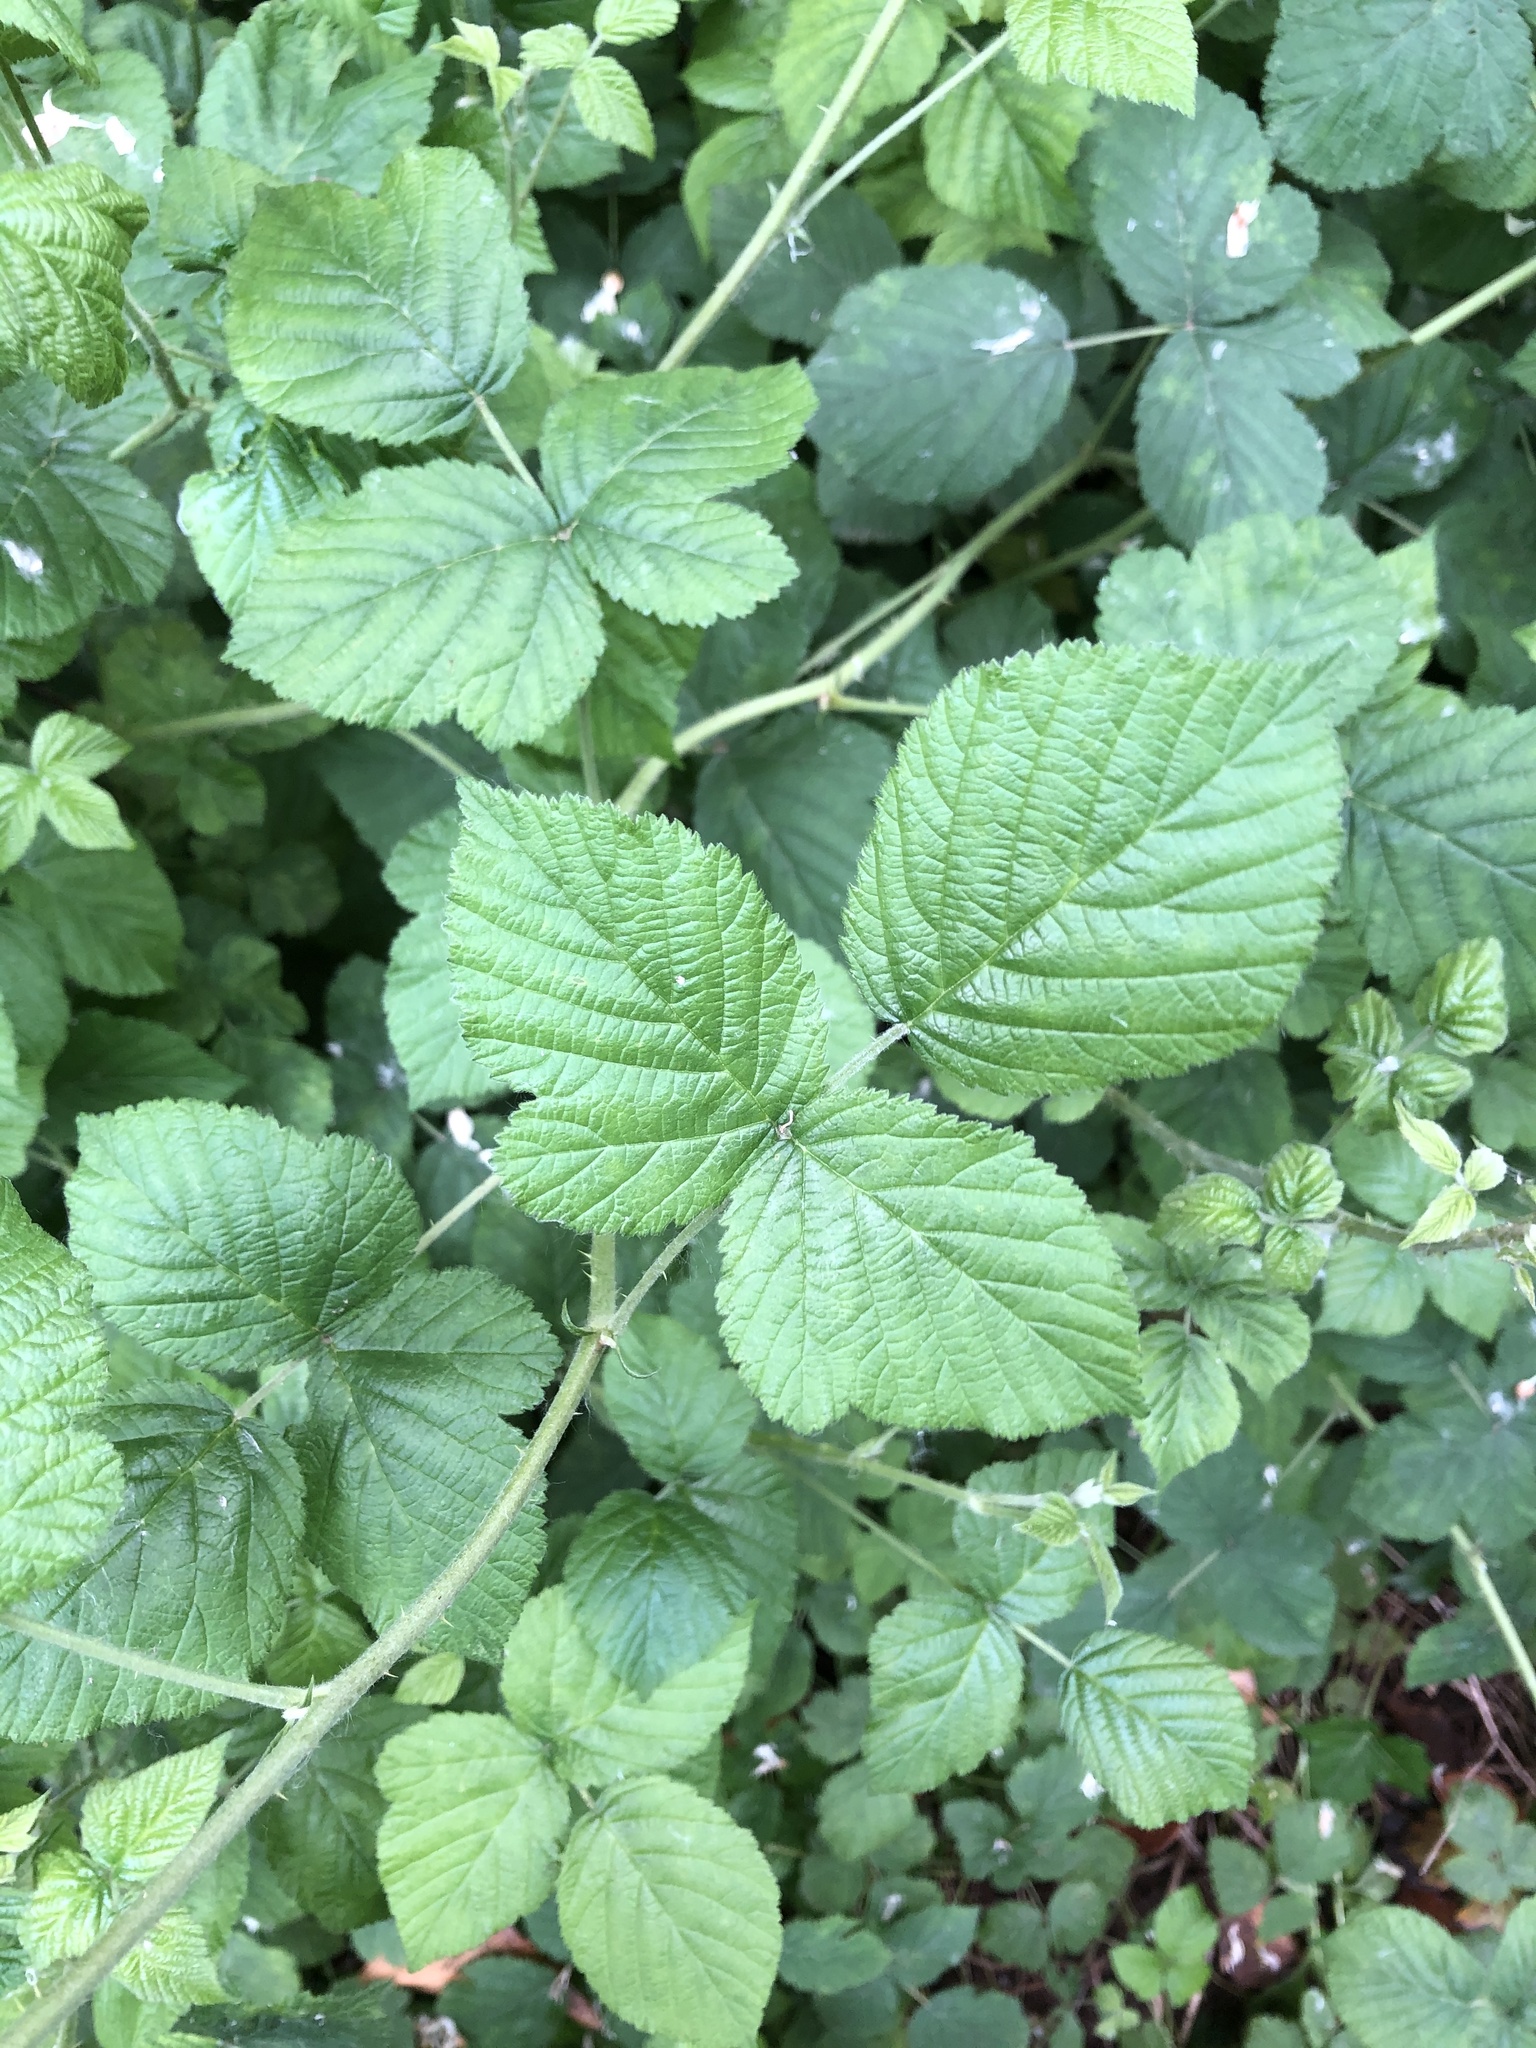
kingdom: Plantae
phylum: Tracheophyta
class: Magnoliopsida
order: Rosales
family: Rosaceae
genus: Rubus
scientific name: Rubus caesius
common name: Dewberry
